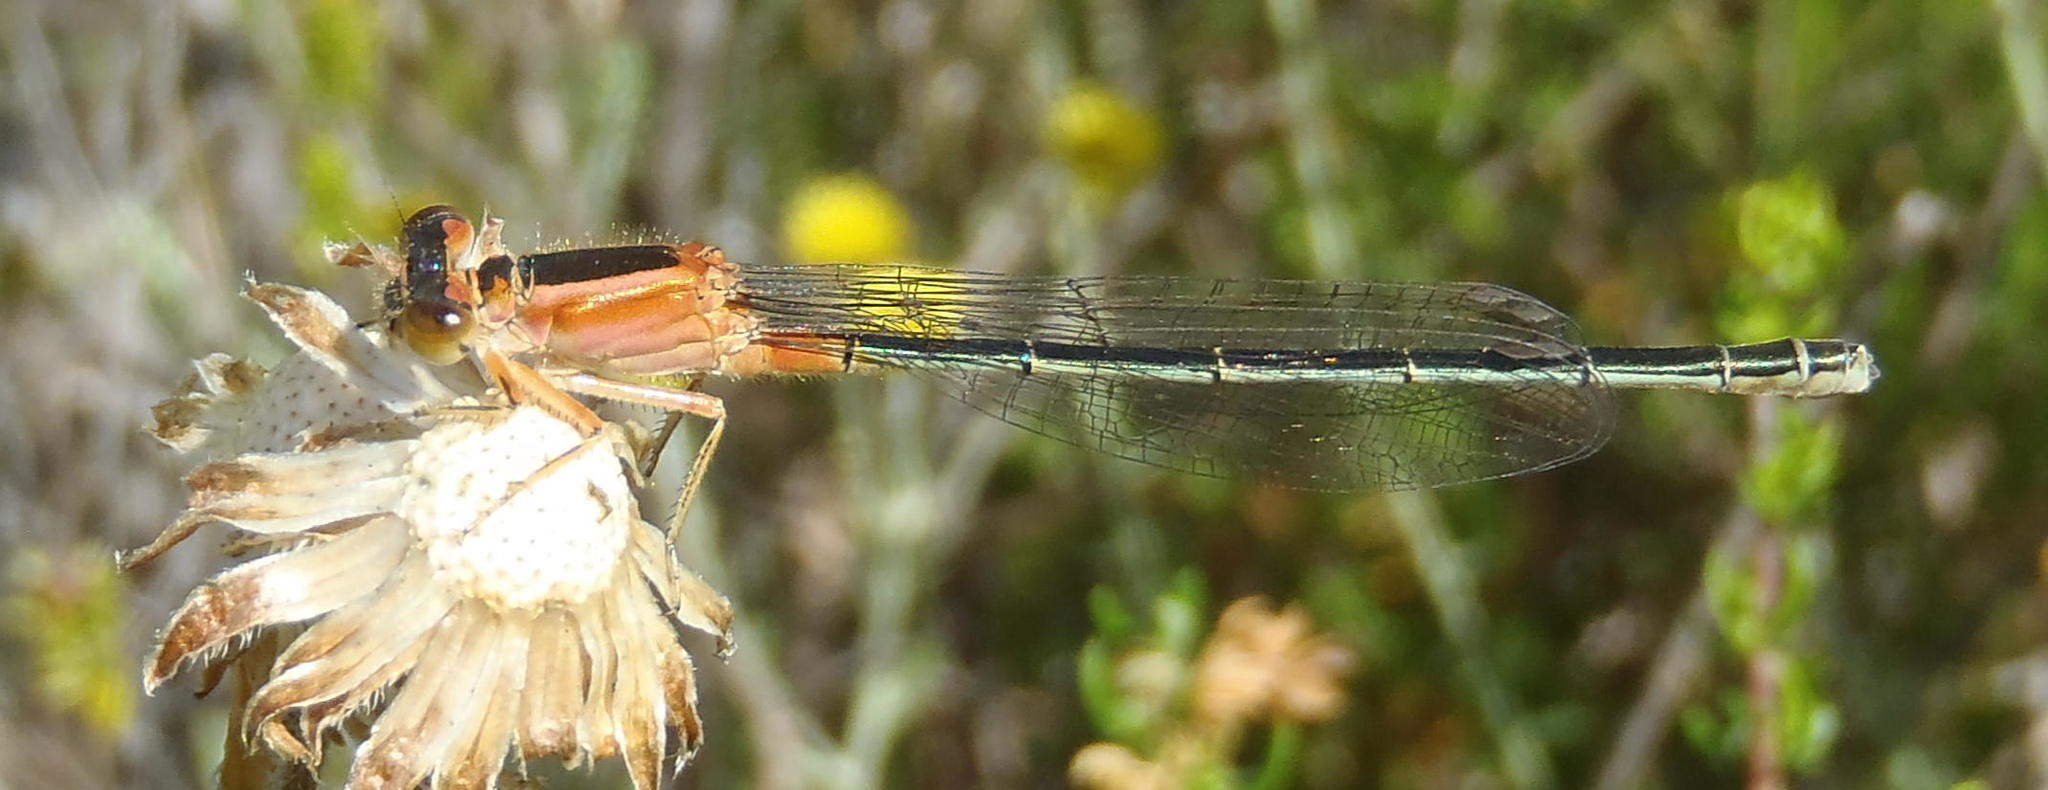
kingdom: Animalia
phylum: Arthropoda
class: Insecta
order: Odonata
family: Coenagrionidae
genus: Ischnura
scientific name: Ischnura senegalensis
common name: Tropical bluetail
